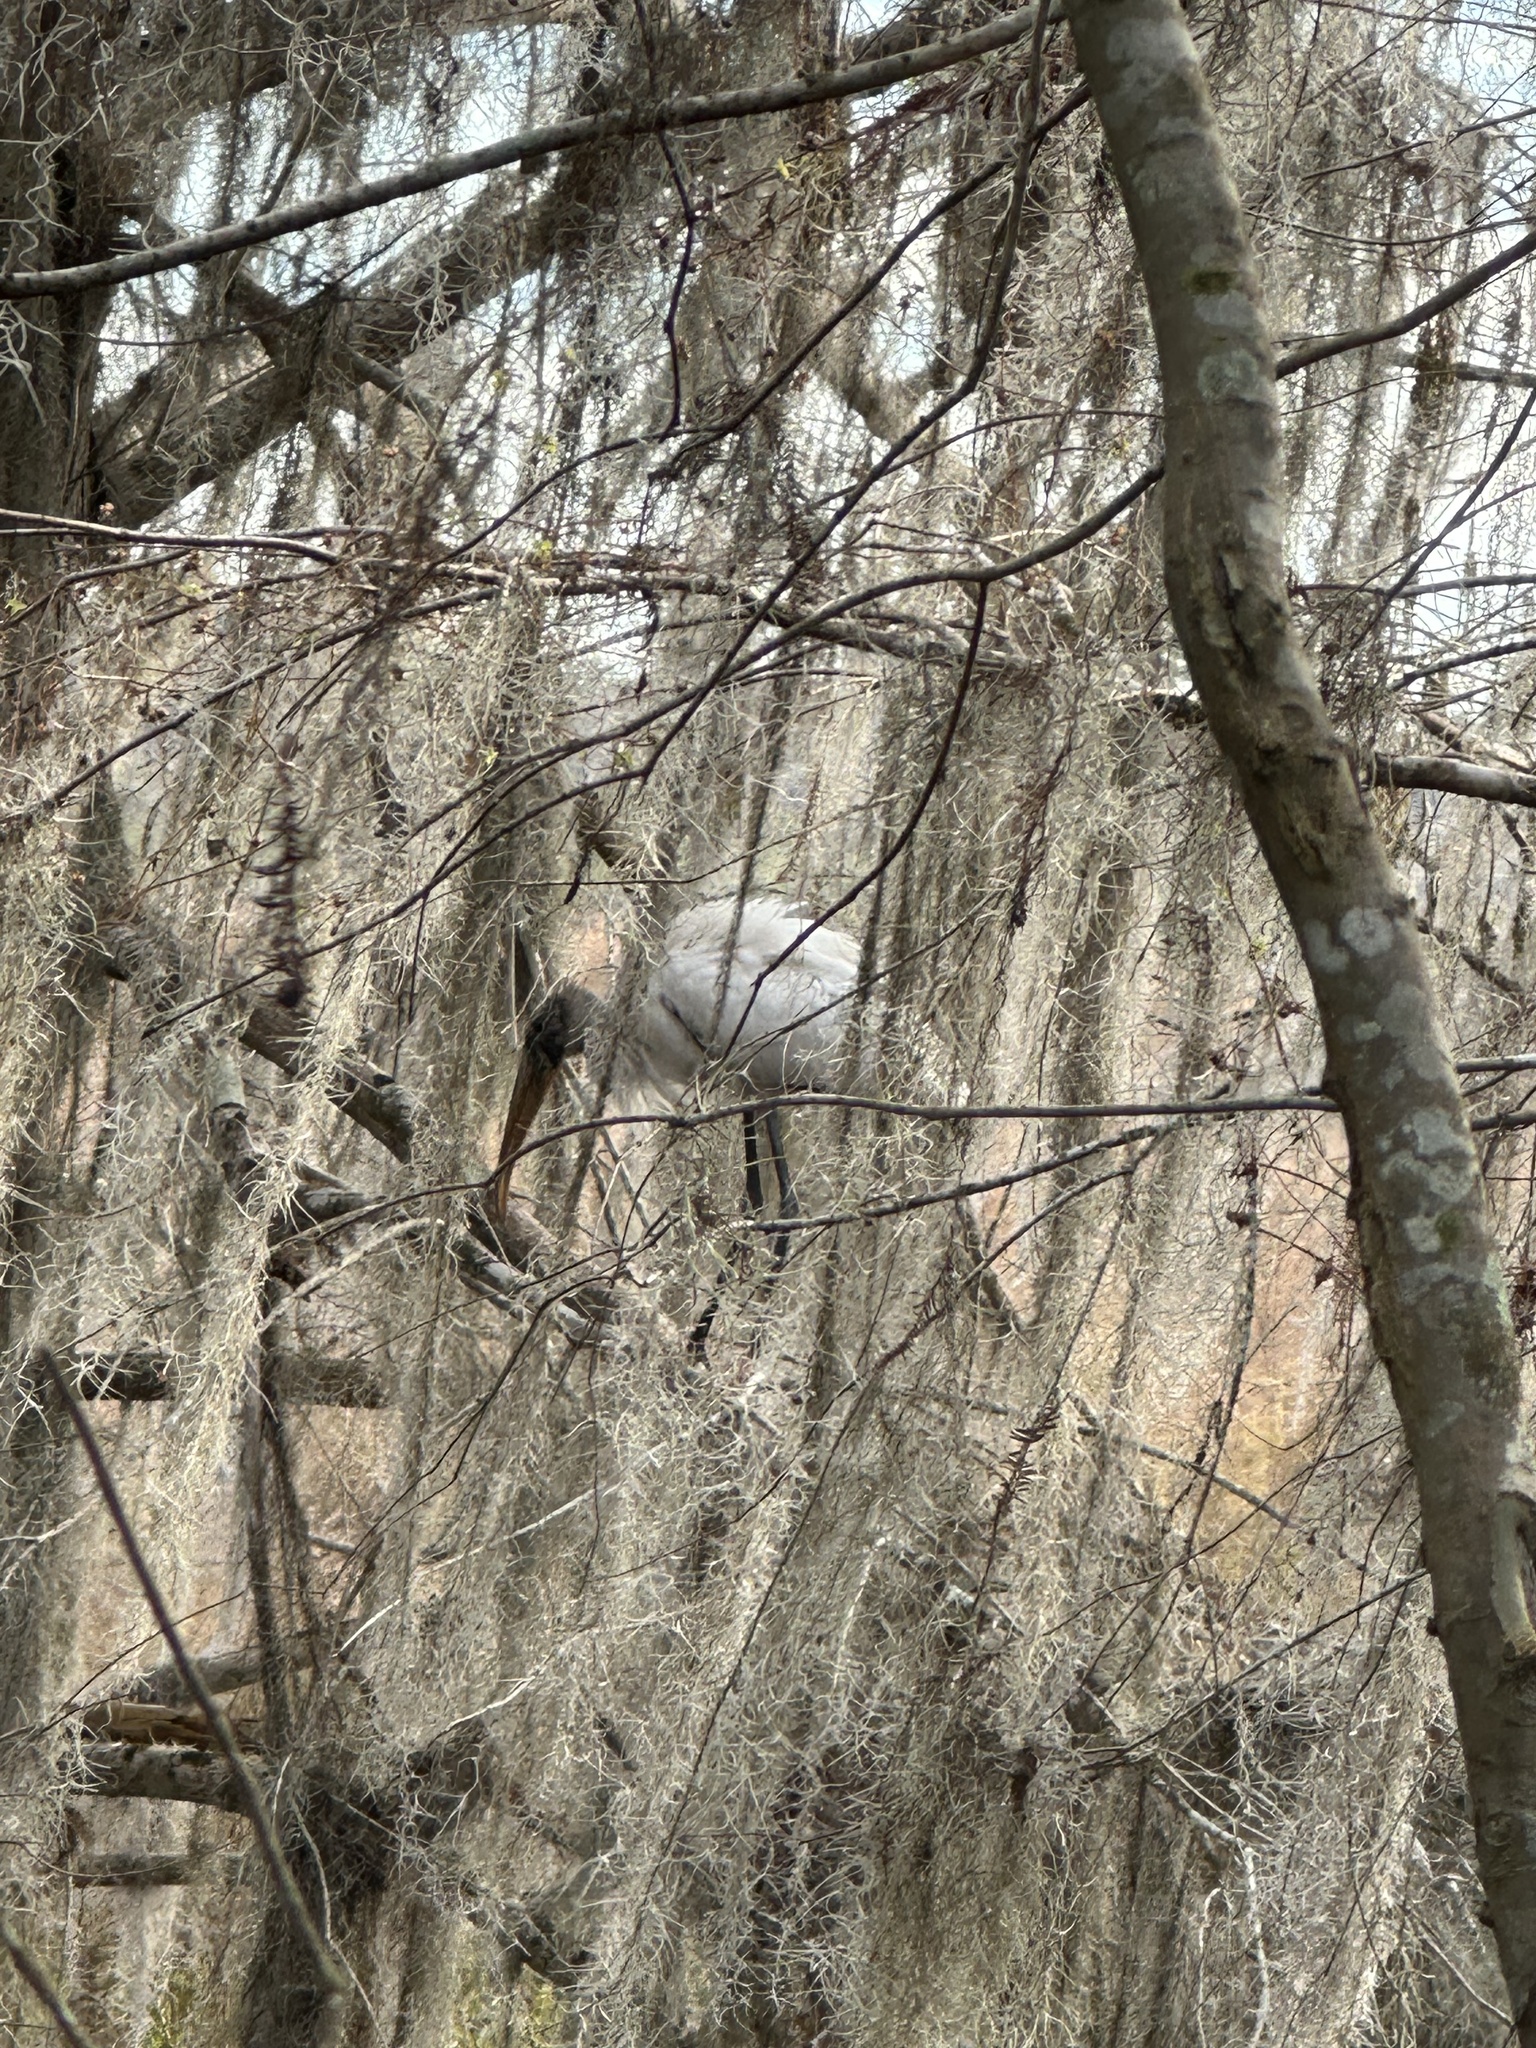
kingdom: Animalia
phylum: Chordata
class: Aves
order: Ciconiiformes
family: Ciconiidae
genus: Mycteria
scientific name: Mycteria americana
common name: Wood stork
